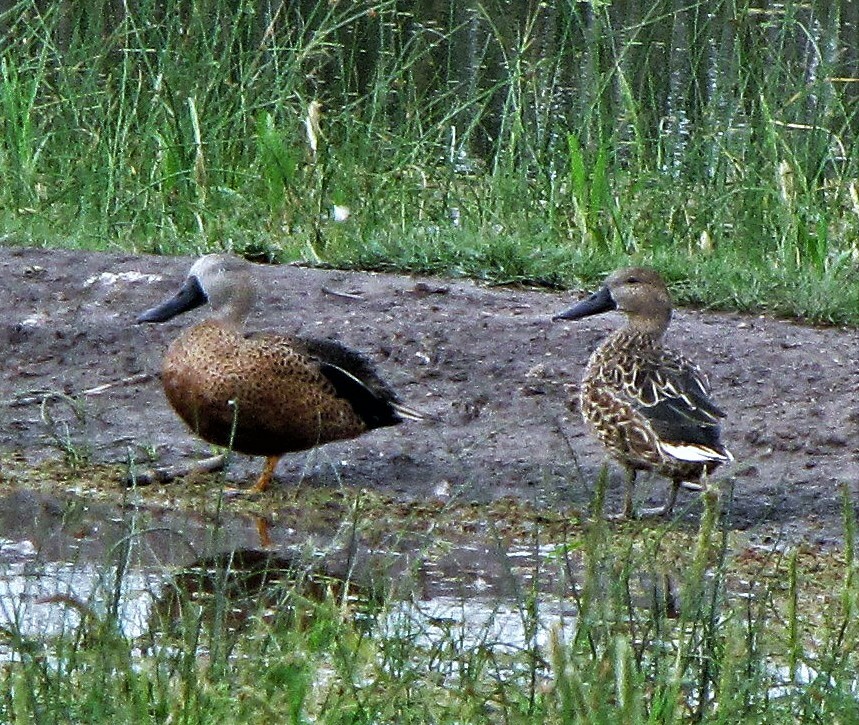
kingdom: Animalia
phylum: Chordata
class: Aves
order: Anseriformes
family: Anatidae
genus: Spatula
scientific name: Spatula platalea
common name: Red shoveler
